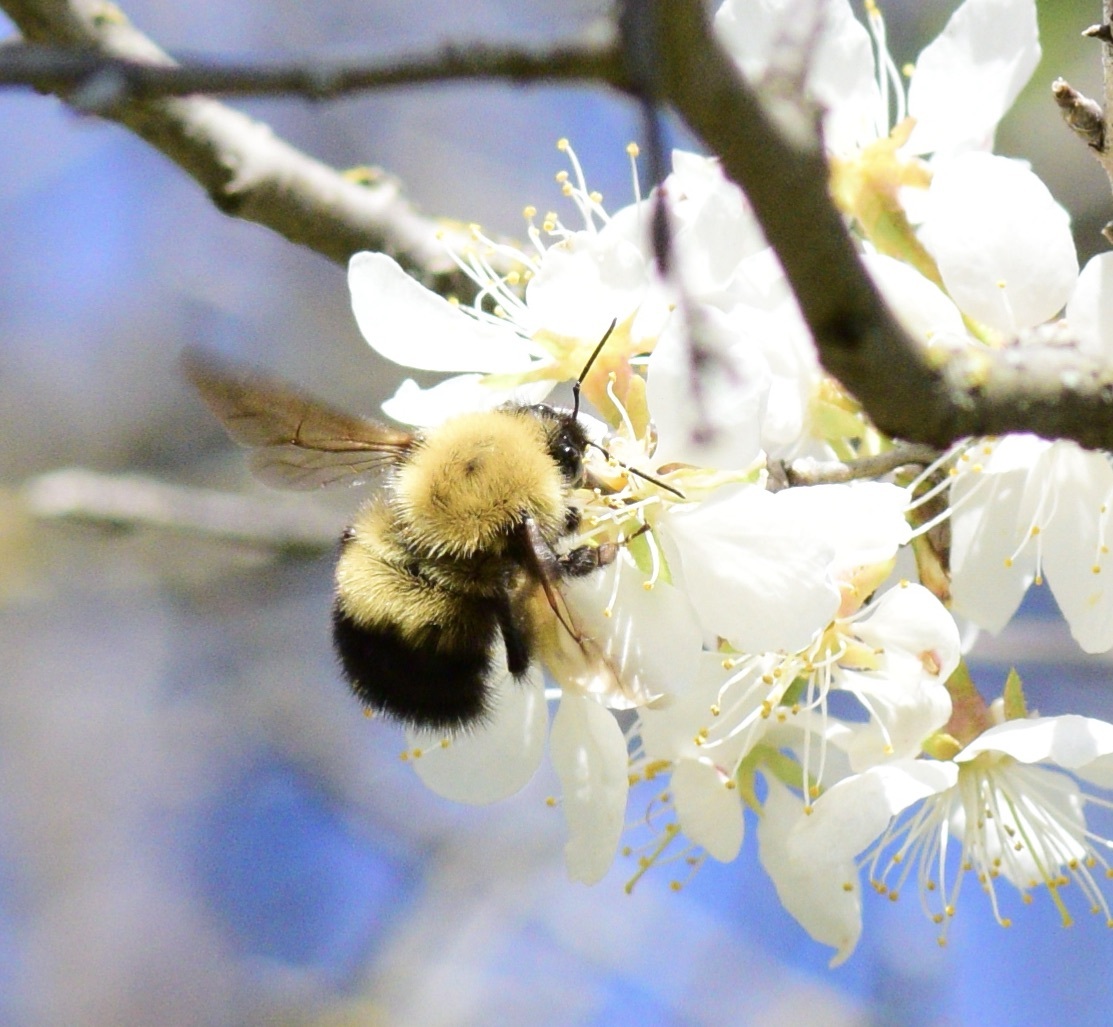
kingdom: Animalia
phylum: Arthropoda
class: Insecta
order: Hymenoptera
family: Apidae
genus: Bombus
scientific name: Bombus perplexus
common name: Confusing bumble bee
